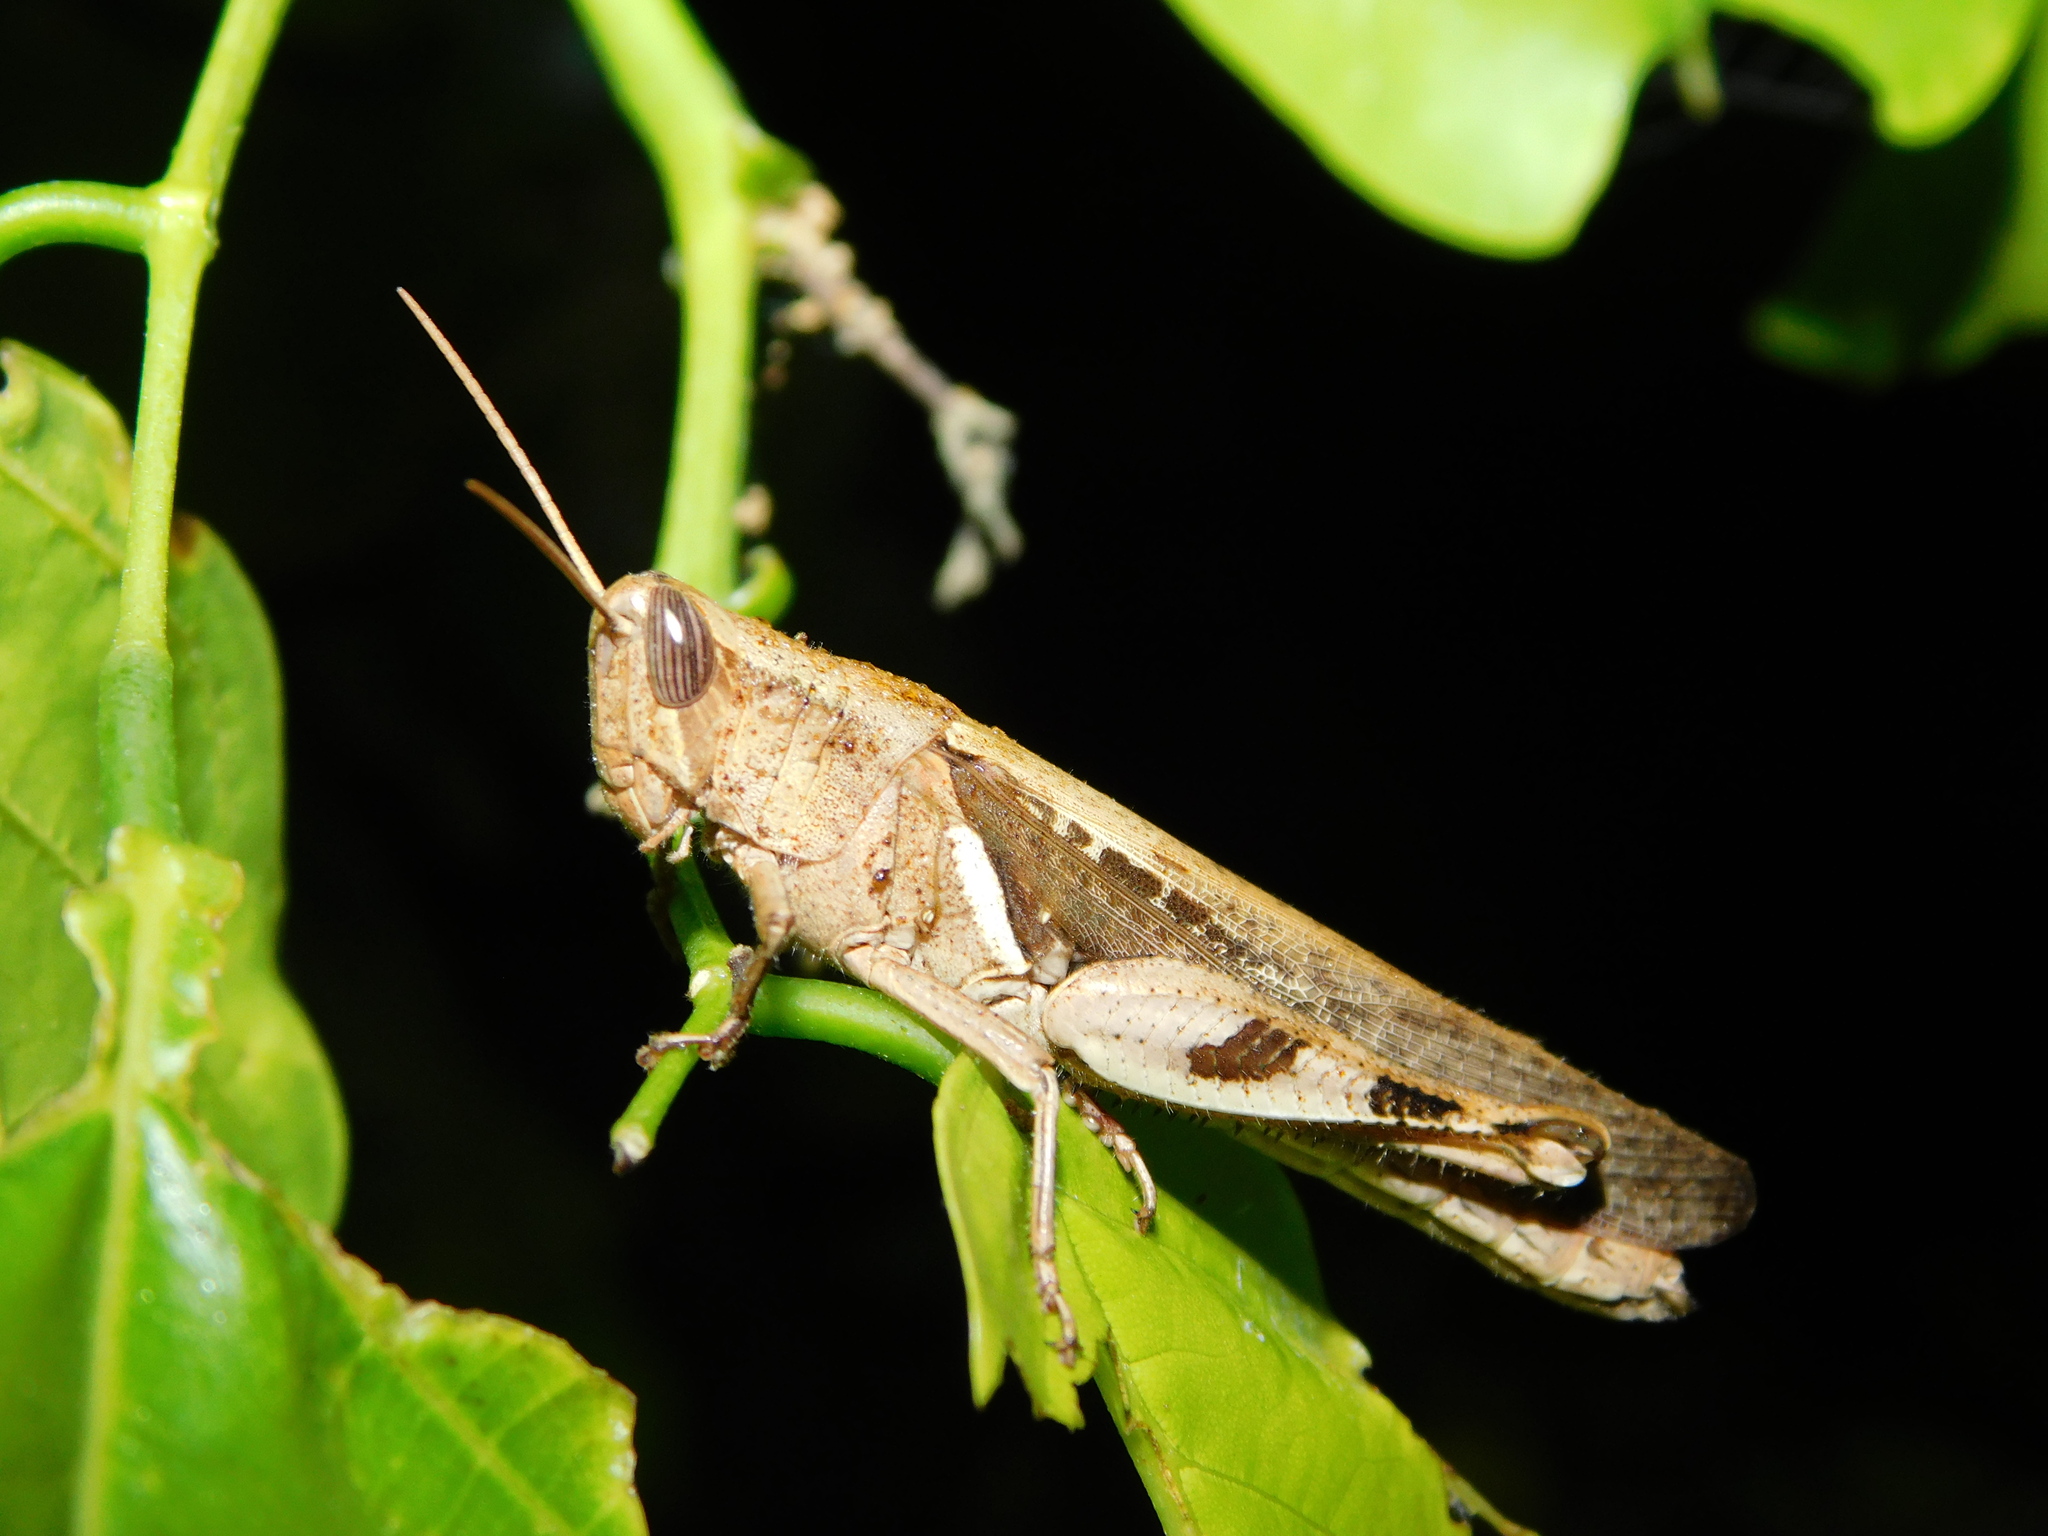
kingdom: Animalia
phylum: Arthropoda
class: Insecta
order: Orthoptera
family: Acrididae
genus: Stenocatantops
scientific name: Stenocatantops cornelii
